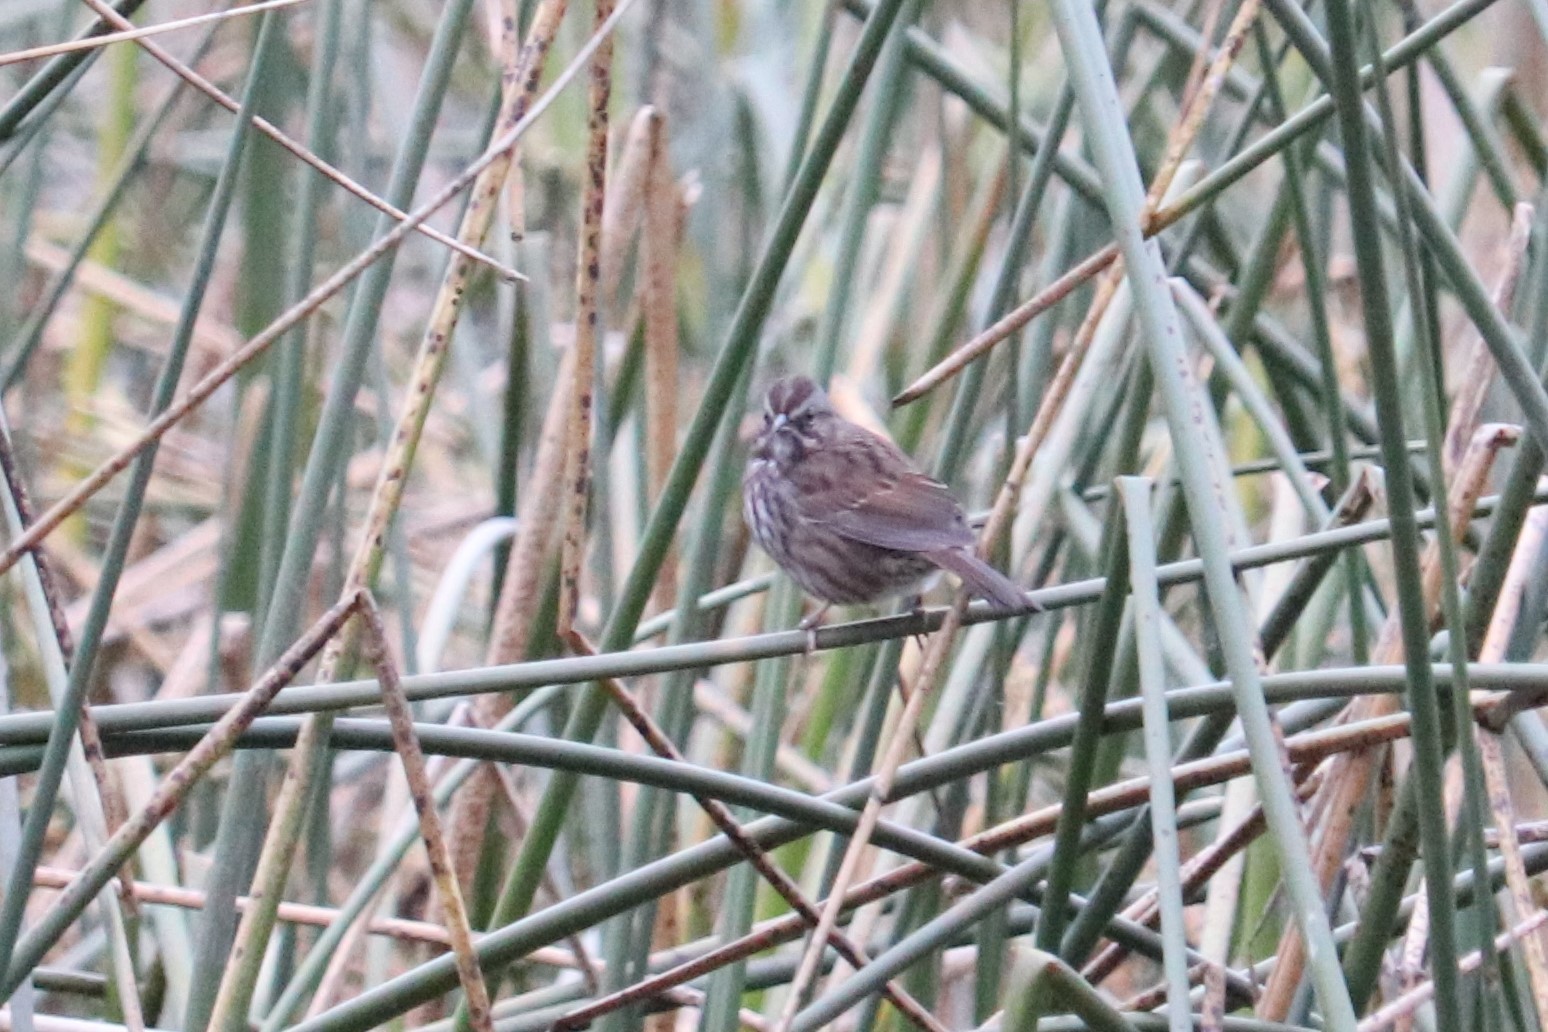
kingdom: Animalia
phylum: Chordata
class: Aves
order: Passeriformes
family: Passerellidae
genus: Melospiza
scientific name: Melospiza melodia
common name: Song sparrow
